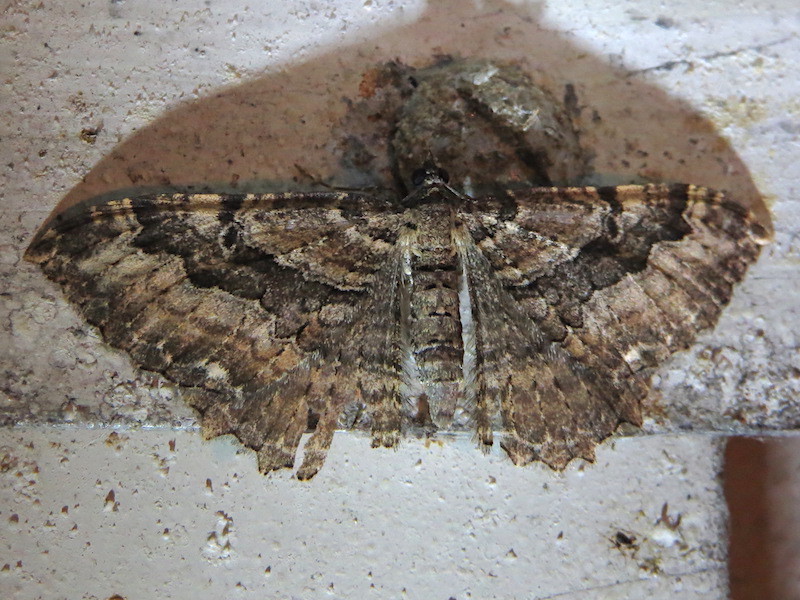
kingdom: Animalia
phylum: Arthropoda
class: Insecta
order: Lepidoptera
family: Geometridae
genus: Rheumaptera
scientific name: Rheumaptera
